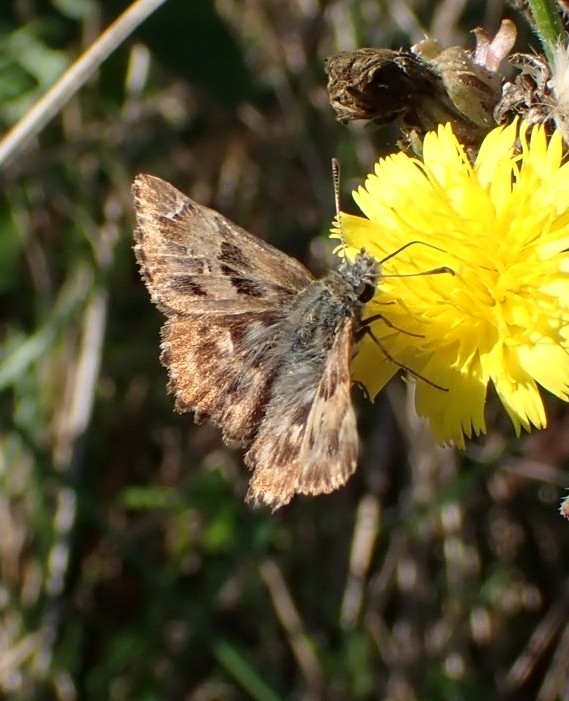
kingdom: Animalia
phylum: Arthropoda
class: Insecta
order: Lepidoptera
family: Hesperiidae
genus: Carcharodus
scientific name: Carcharodus alceae
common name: Mallow skipper
